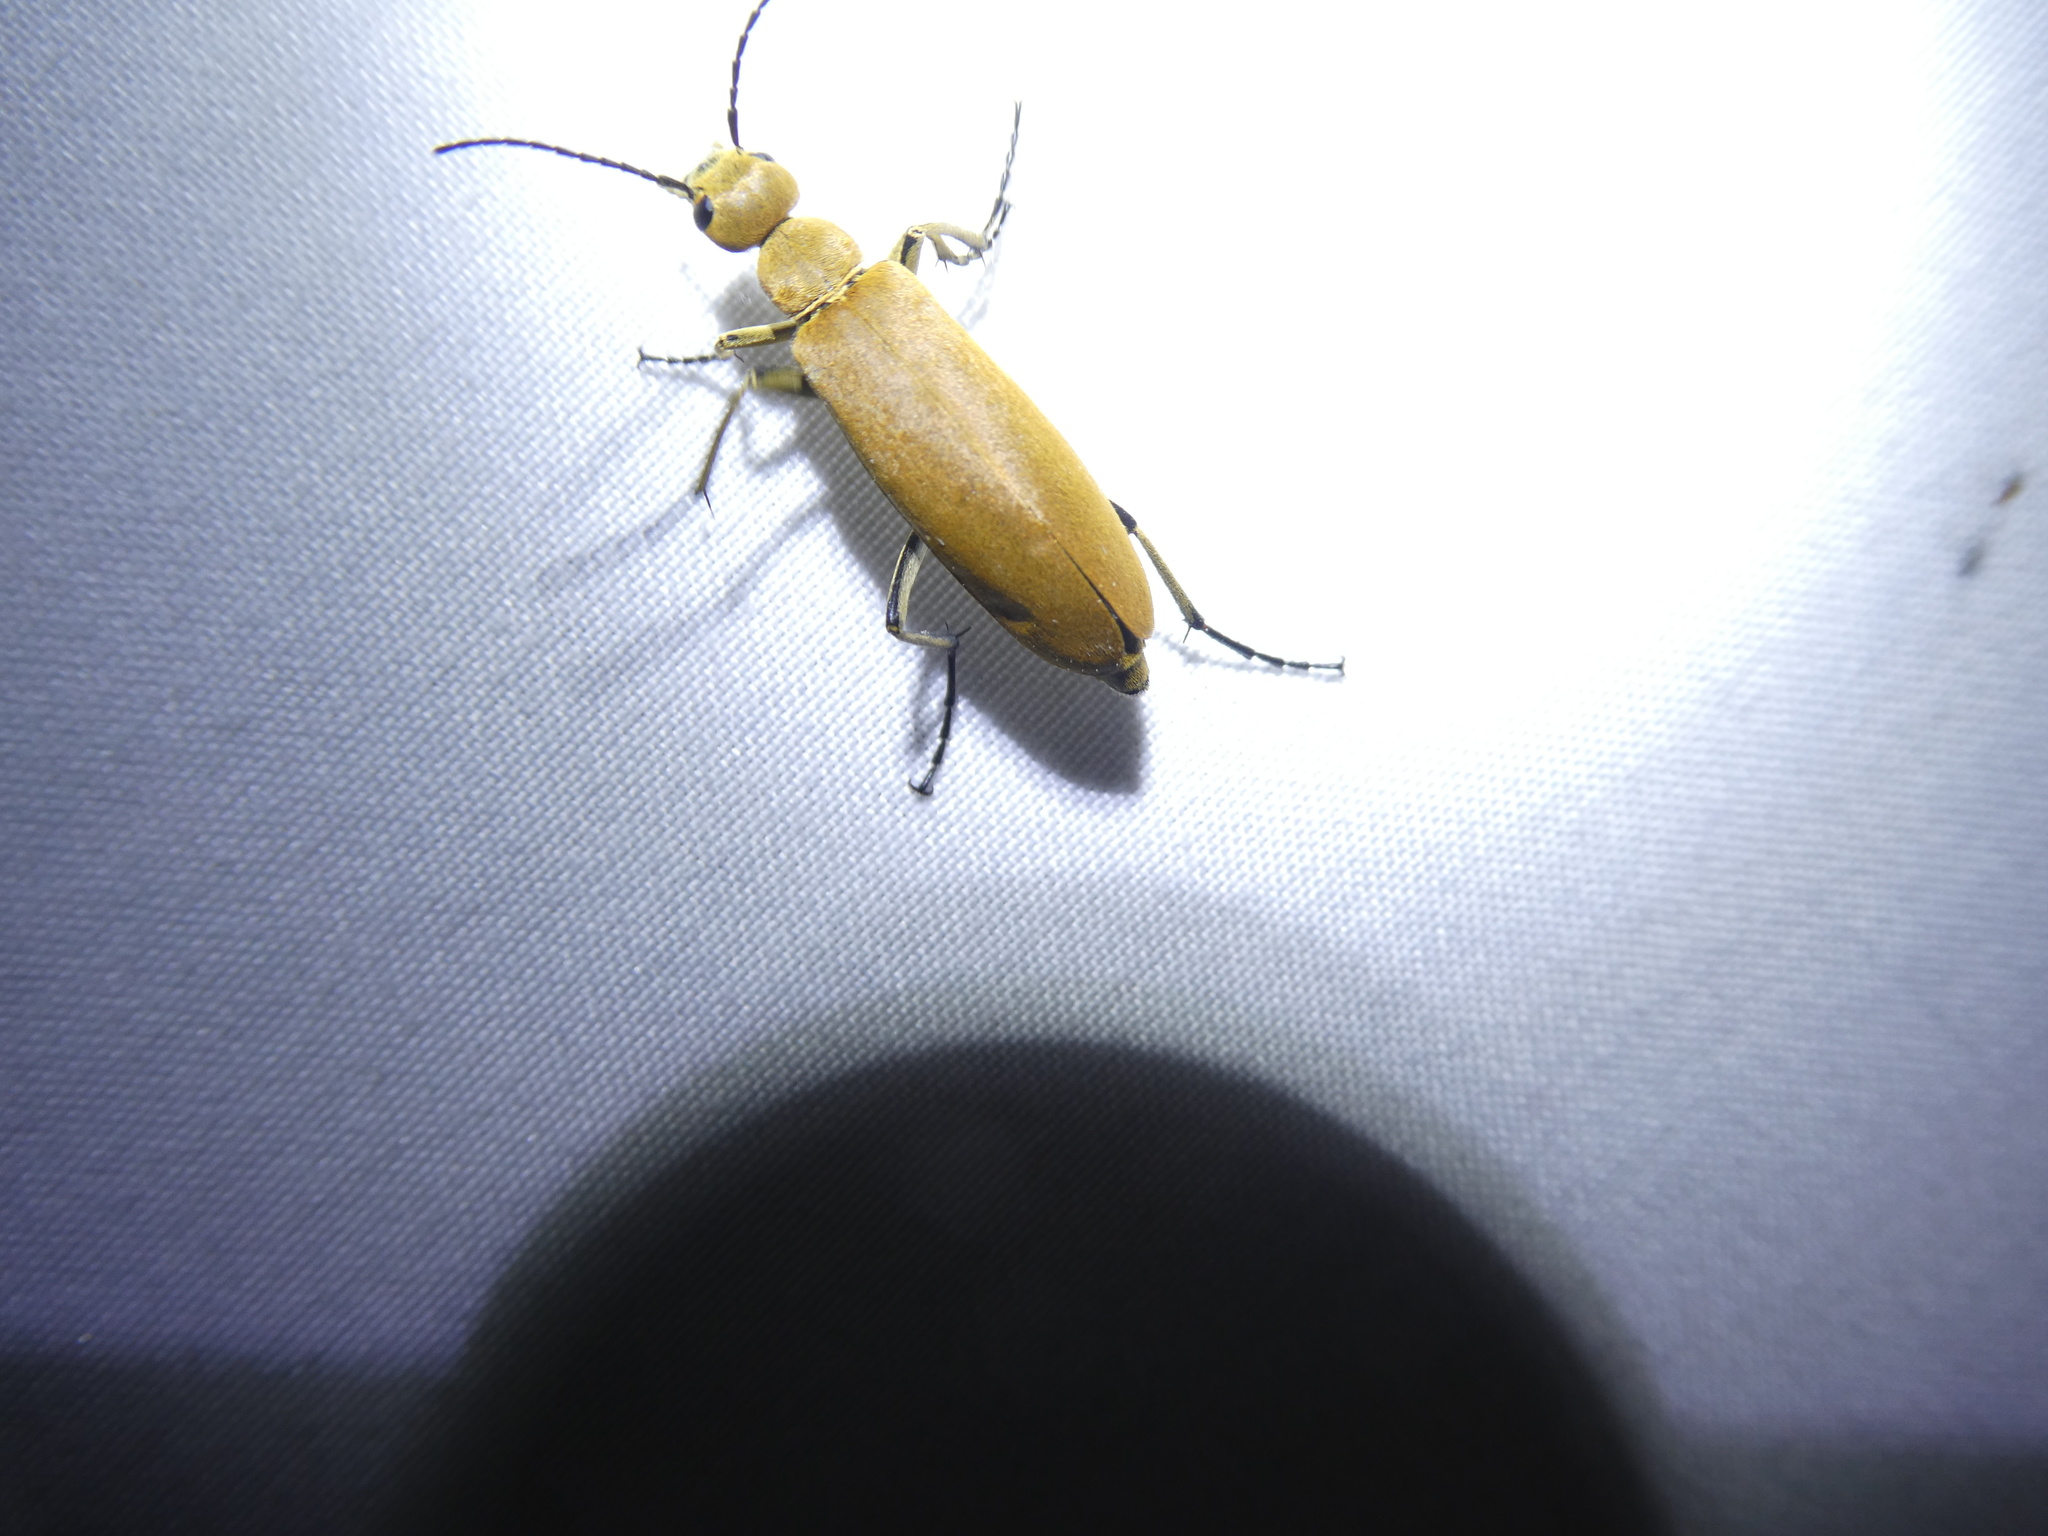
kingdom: Animalia
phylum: Arthropoda
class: Insecta
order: Coleoptera
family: Meloidae
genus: Epicauta
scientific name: Epicauta immaculata
